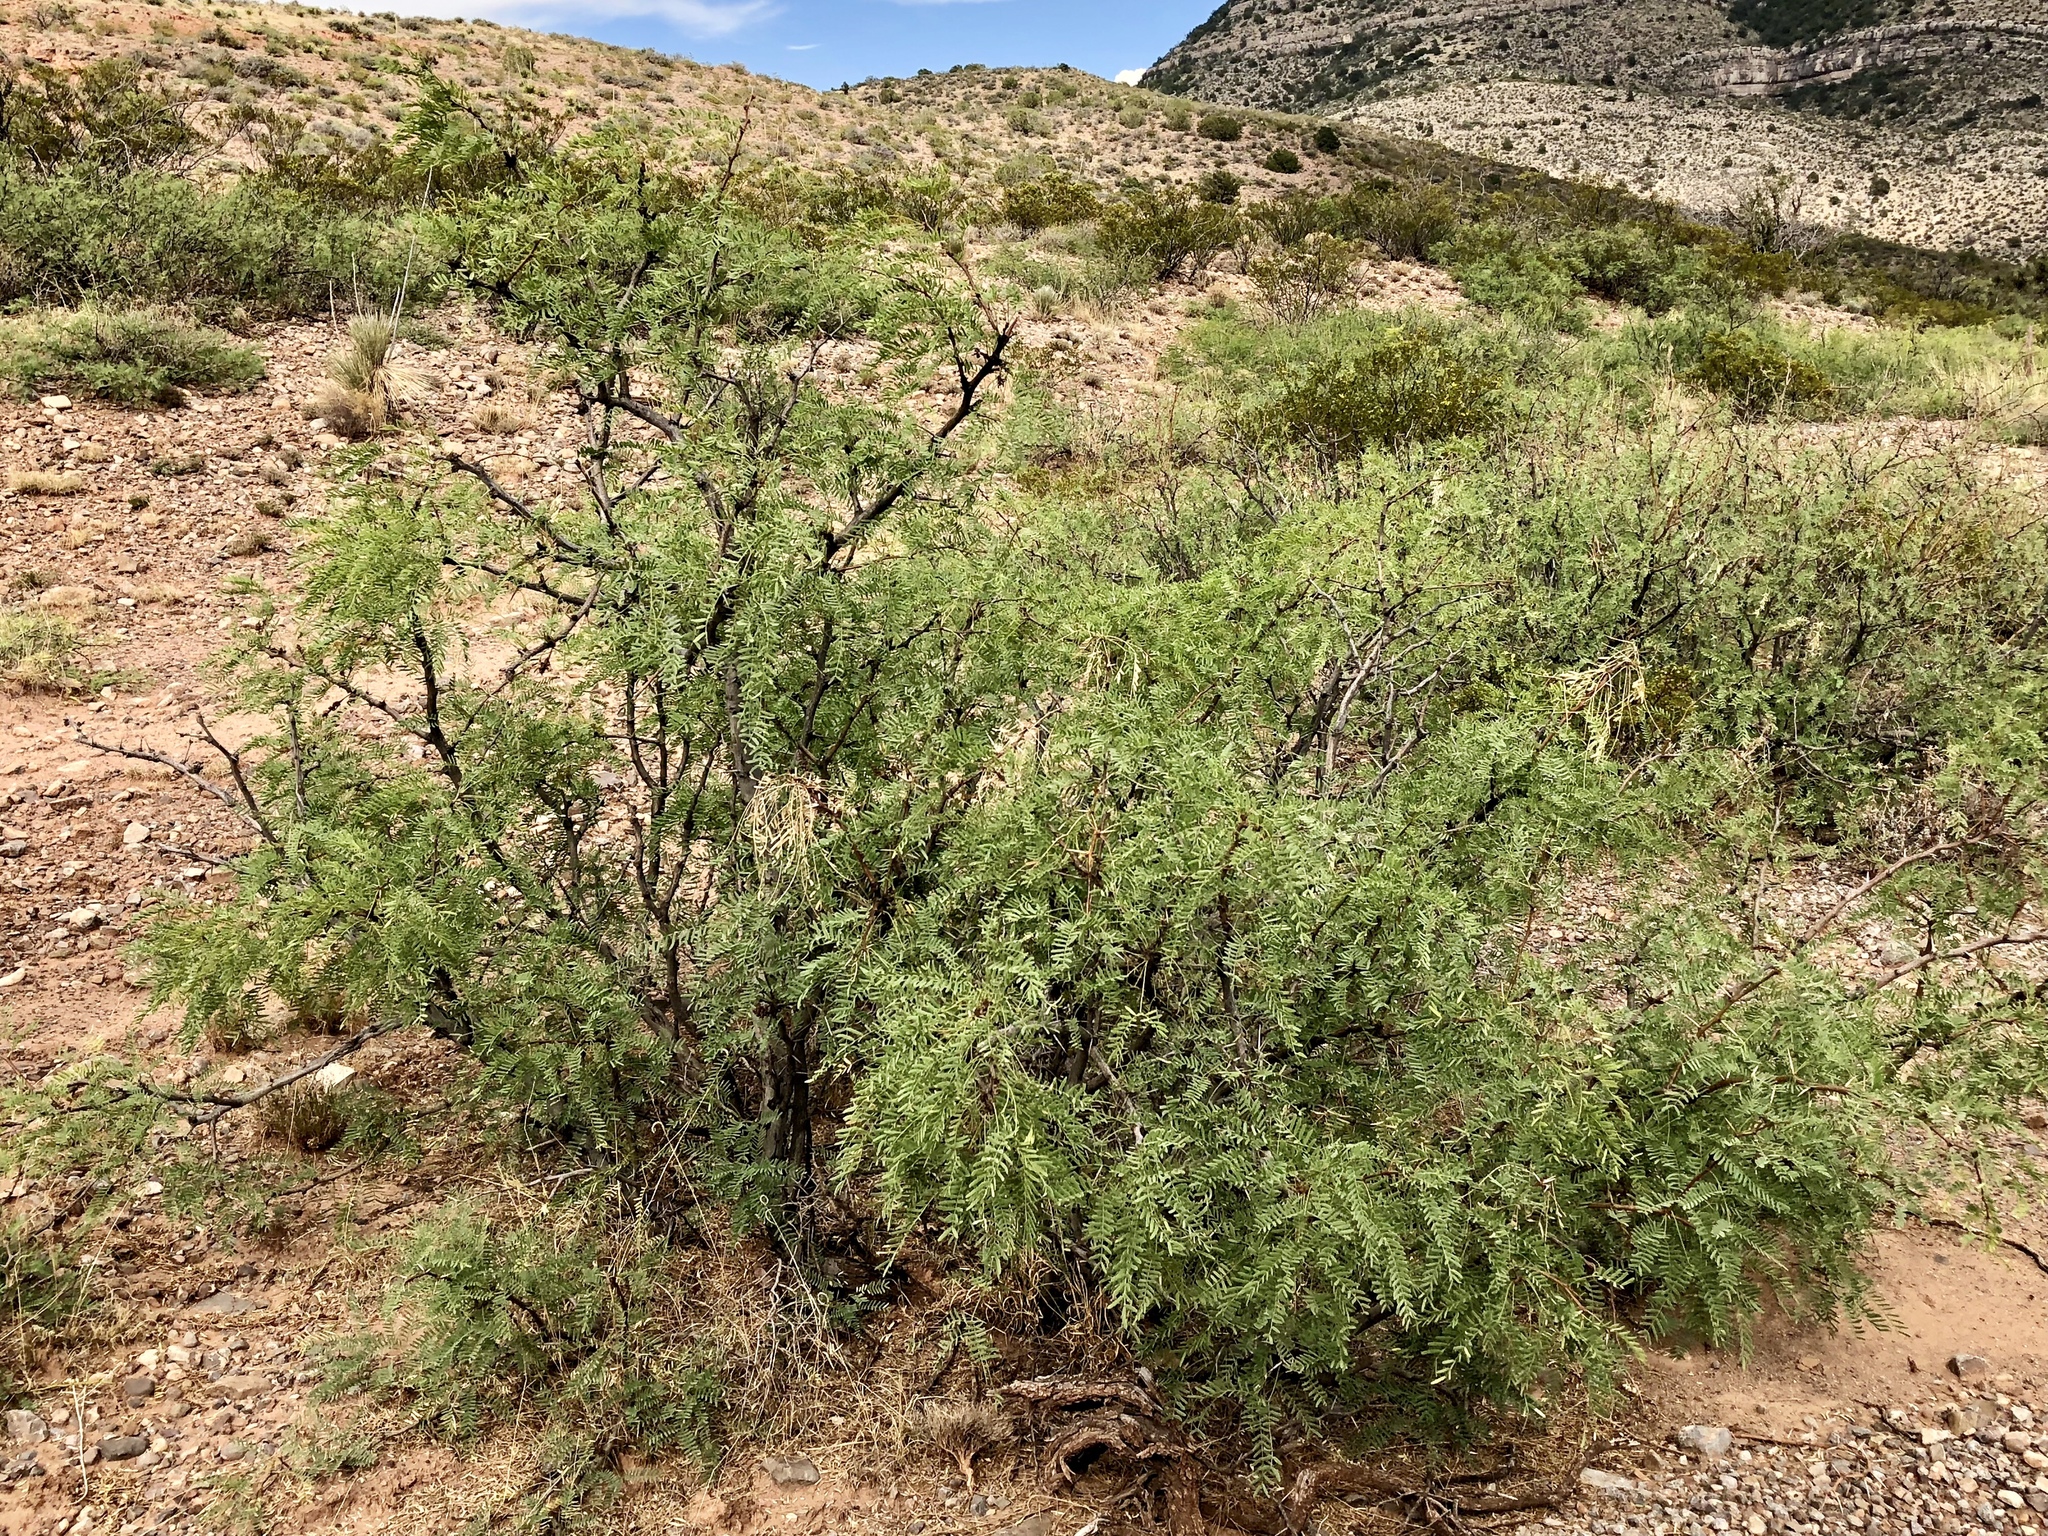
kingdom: Plantae
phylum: Tracheophyta
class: Magnoliopsida
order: Fabales
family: Fabaceae
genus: Prosopis
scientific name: Prosopis glandulosa
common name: Honey mesquite
